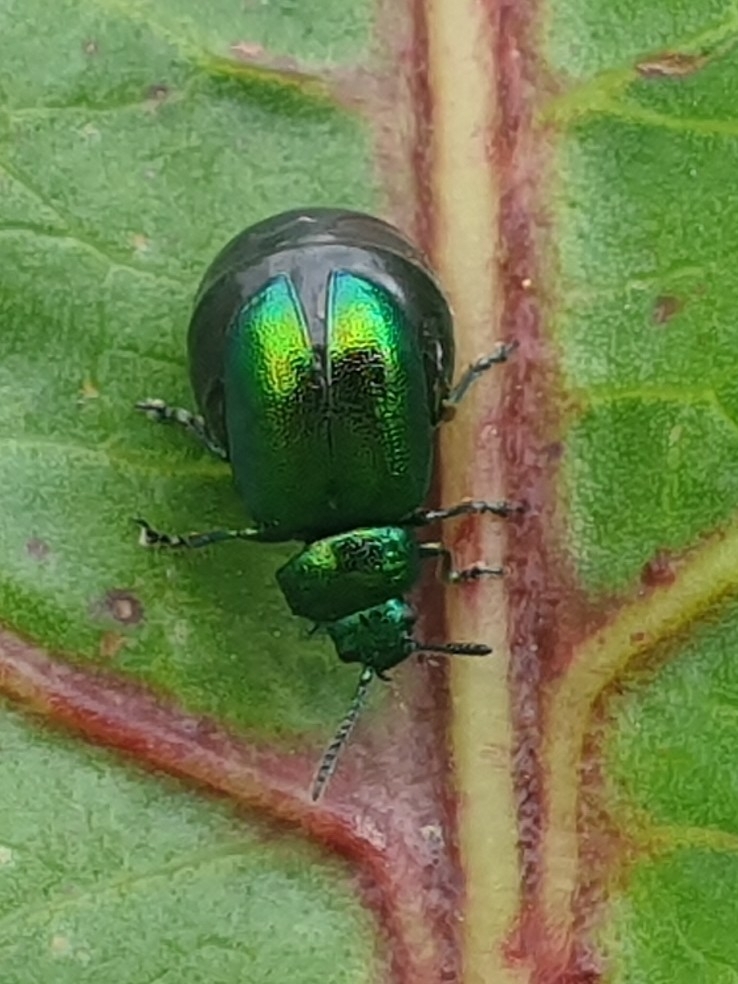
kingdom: Animalia
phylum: Arthropoda
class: Insecta
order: Coleoptera
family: Chrysomelidae
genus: Gastrophysa
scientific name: Gastrophysa viridula
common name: Green dock beetle
